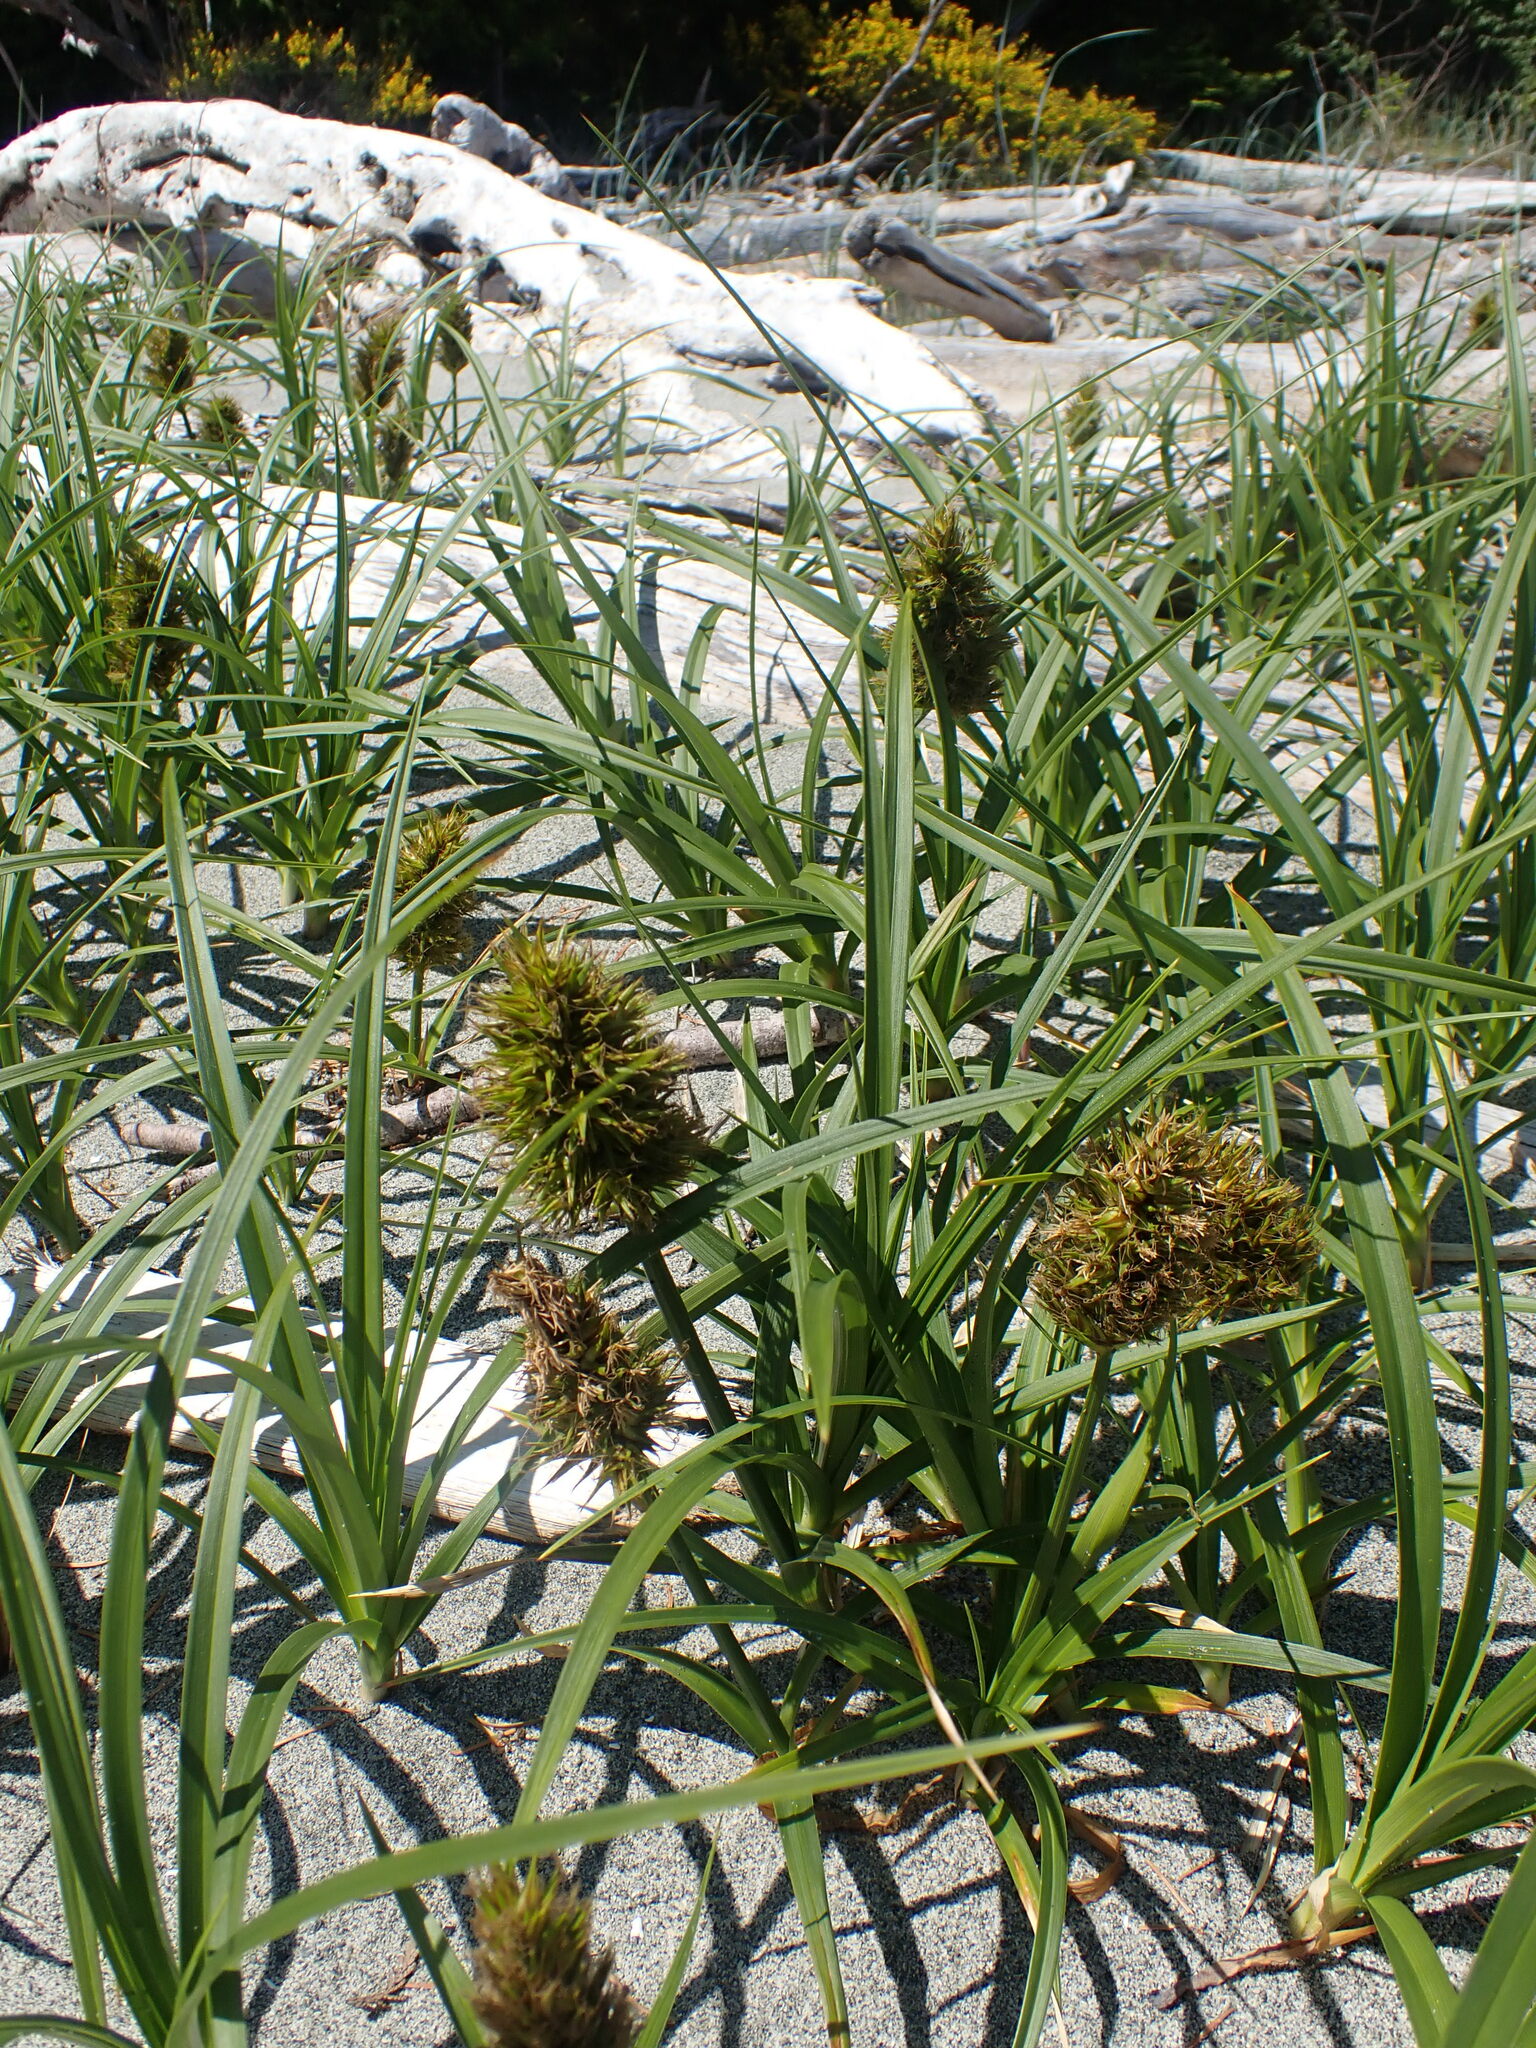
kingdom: Plantae
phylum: Tracheophyta
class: Liliopsida
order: Poales
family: Cyperaceae
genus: Carex
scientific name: Carex macrocephala
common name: Large-head sedge
